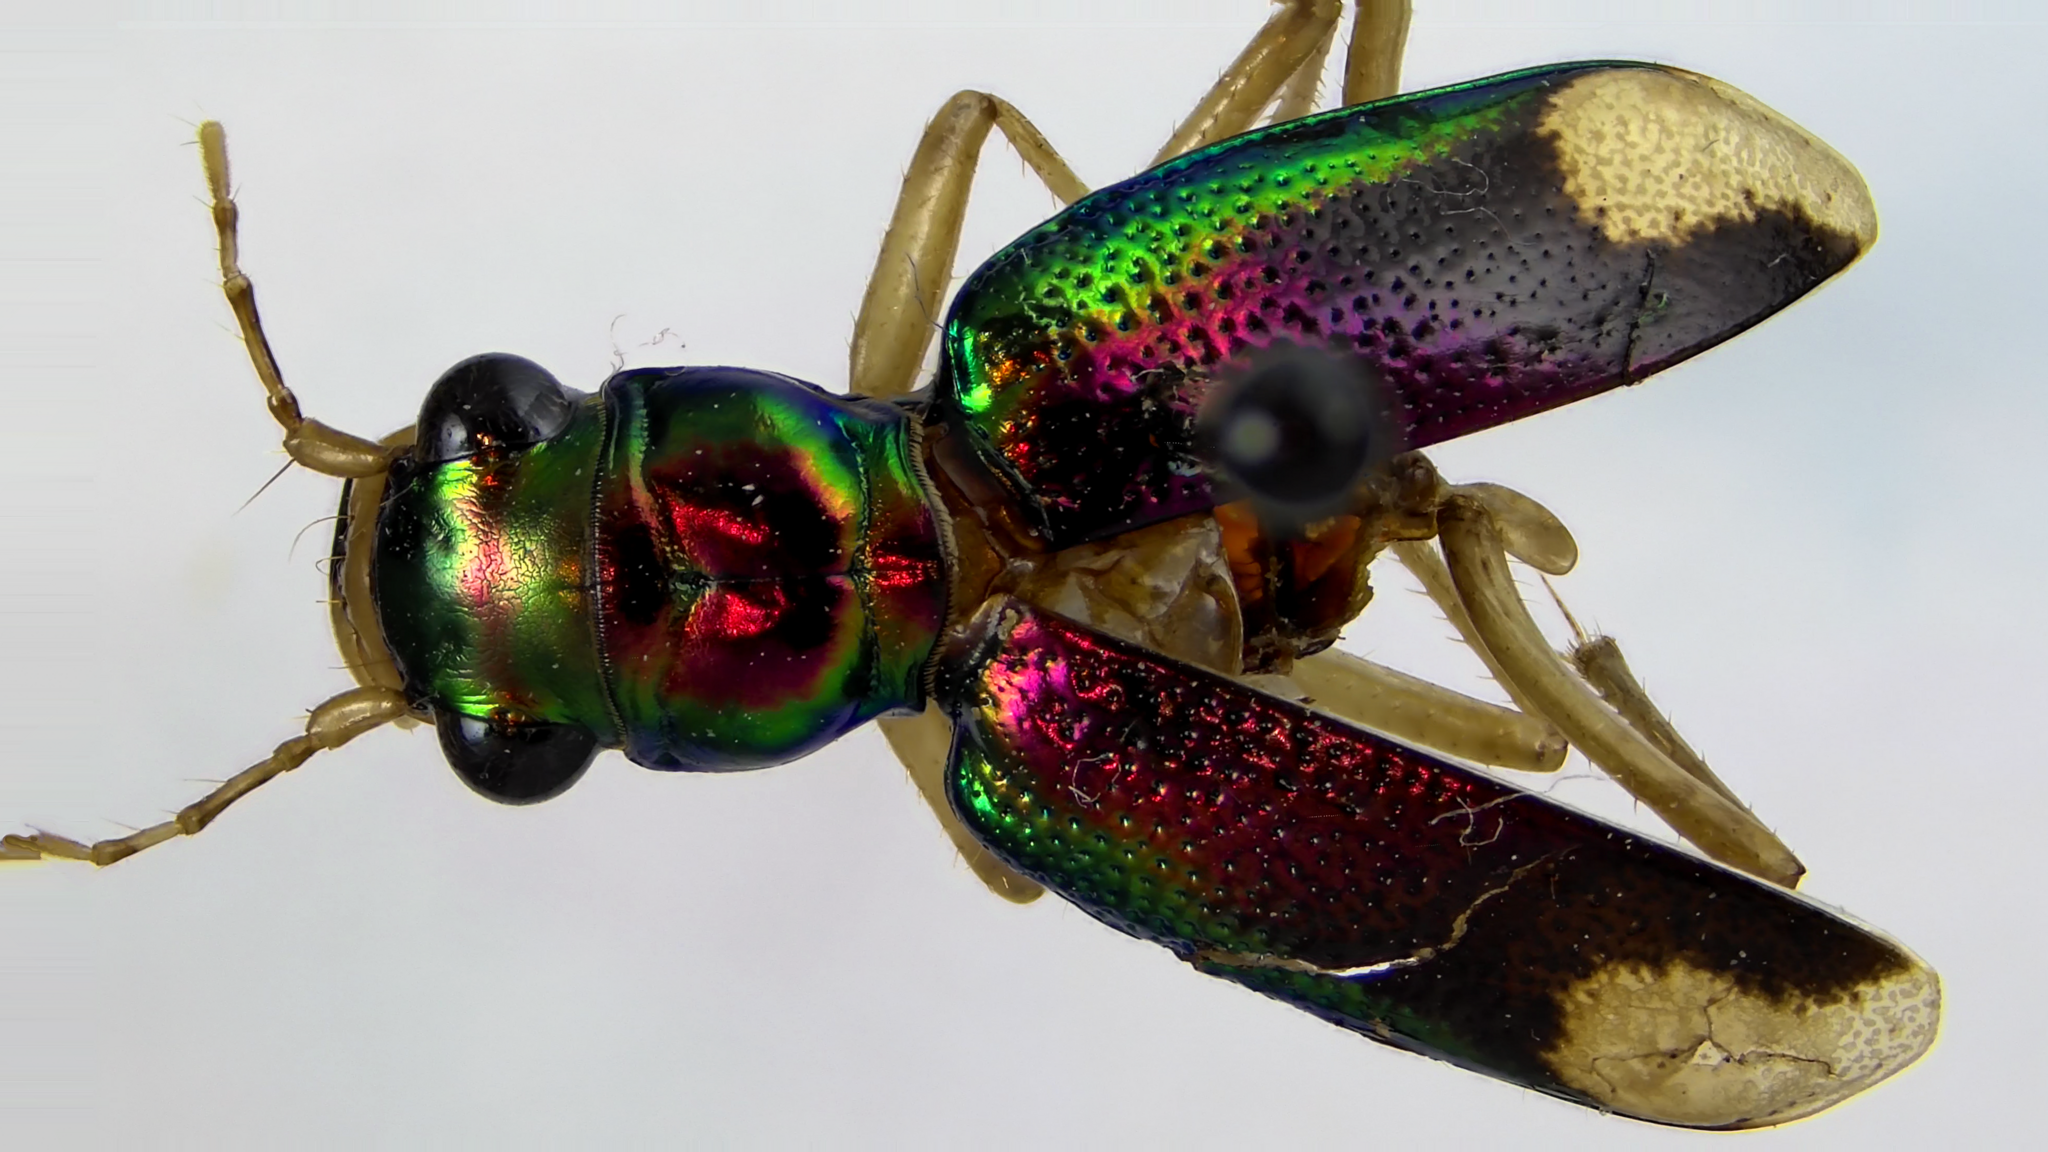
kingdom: Animalia
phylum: Arthropoda
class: Insecta
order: Coleoptera
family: Carabidae
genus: Tetracha
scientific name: Tetracha carolina
